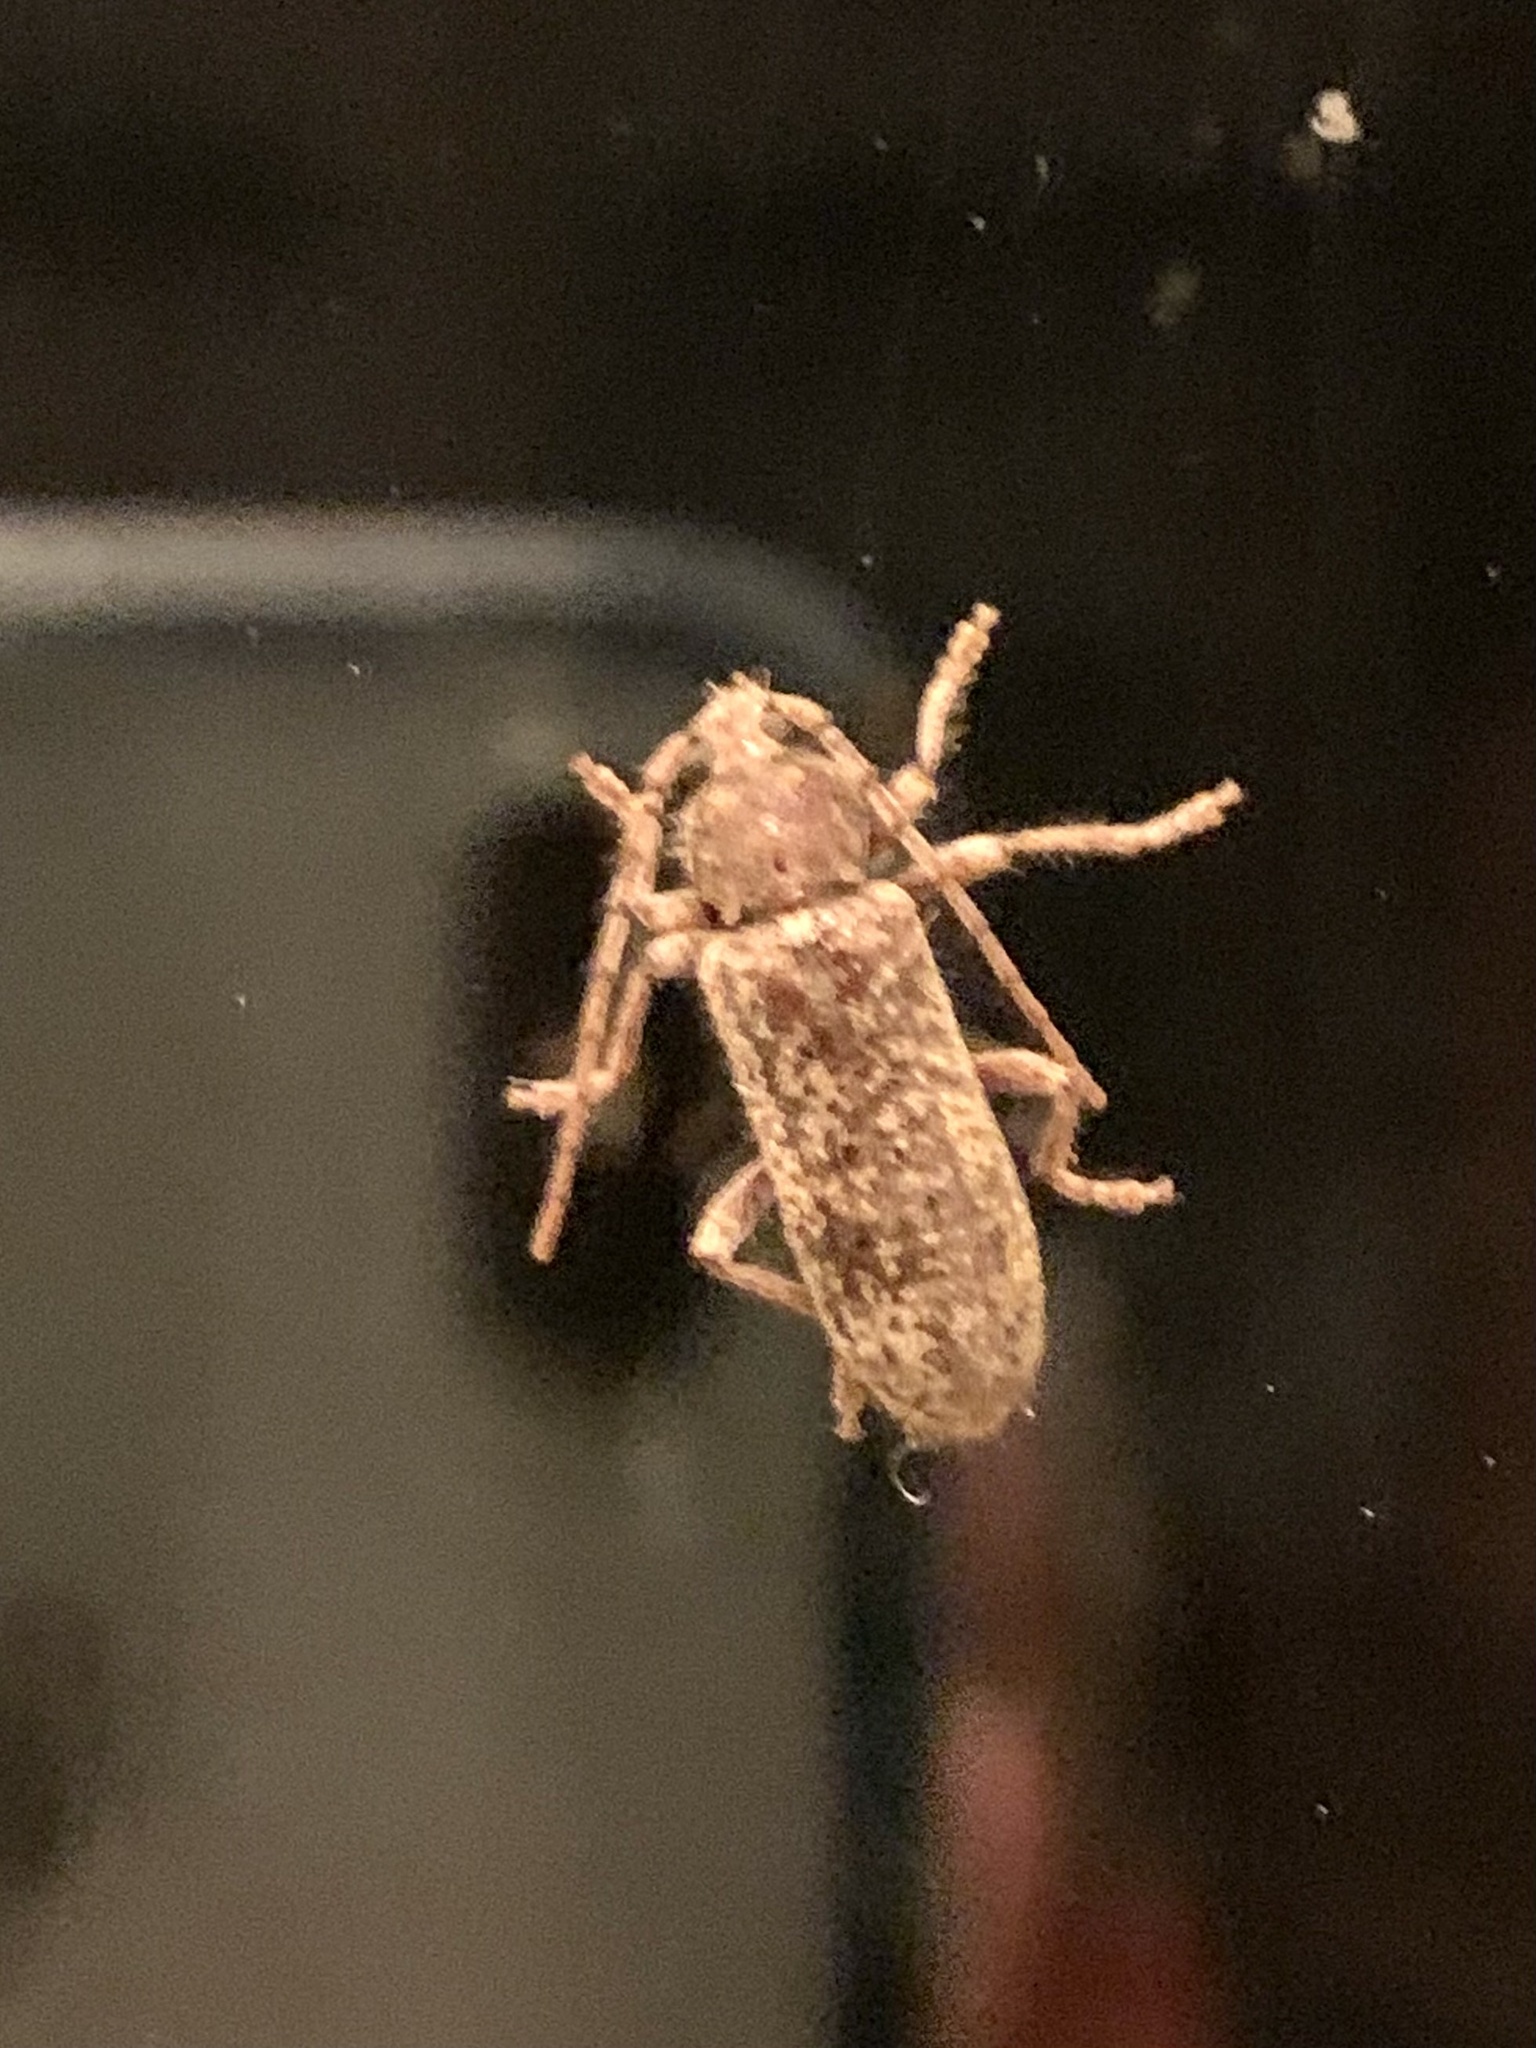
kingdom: Animalia
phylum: Arthropoda
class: Insecta
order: Coleoptera
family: Cerambycidae
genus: Trichoferus
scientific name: Trichoferus fasciculatus
